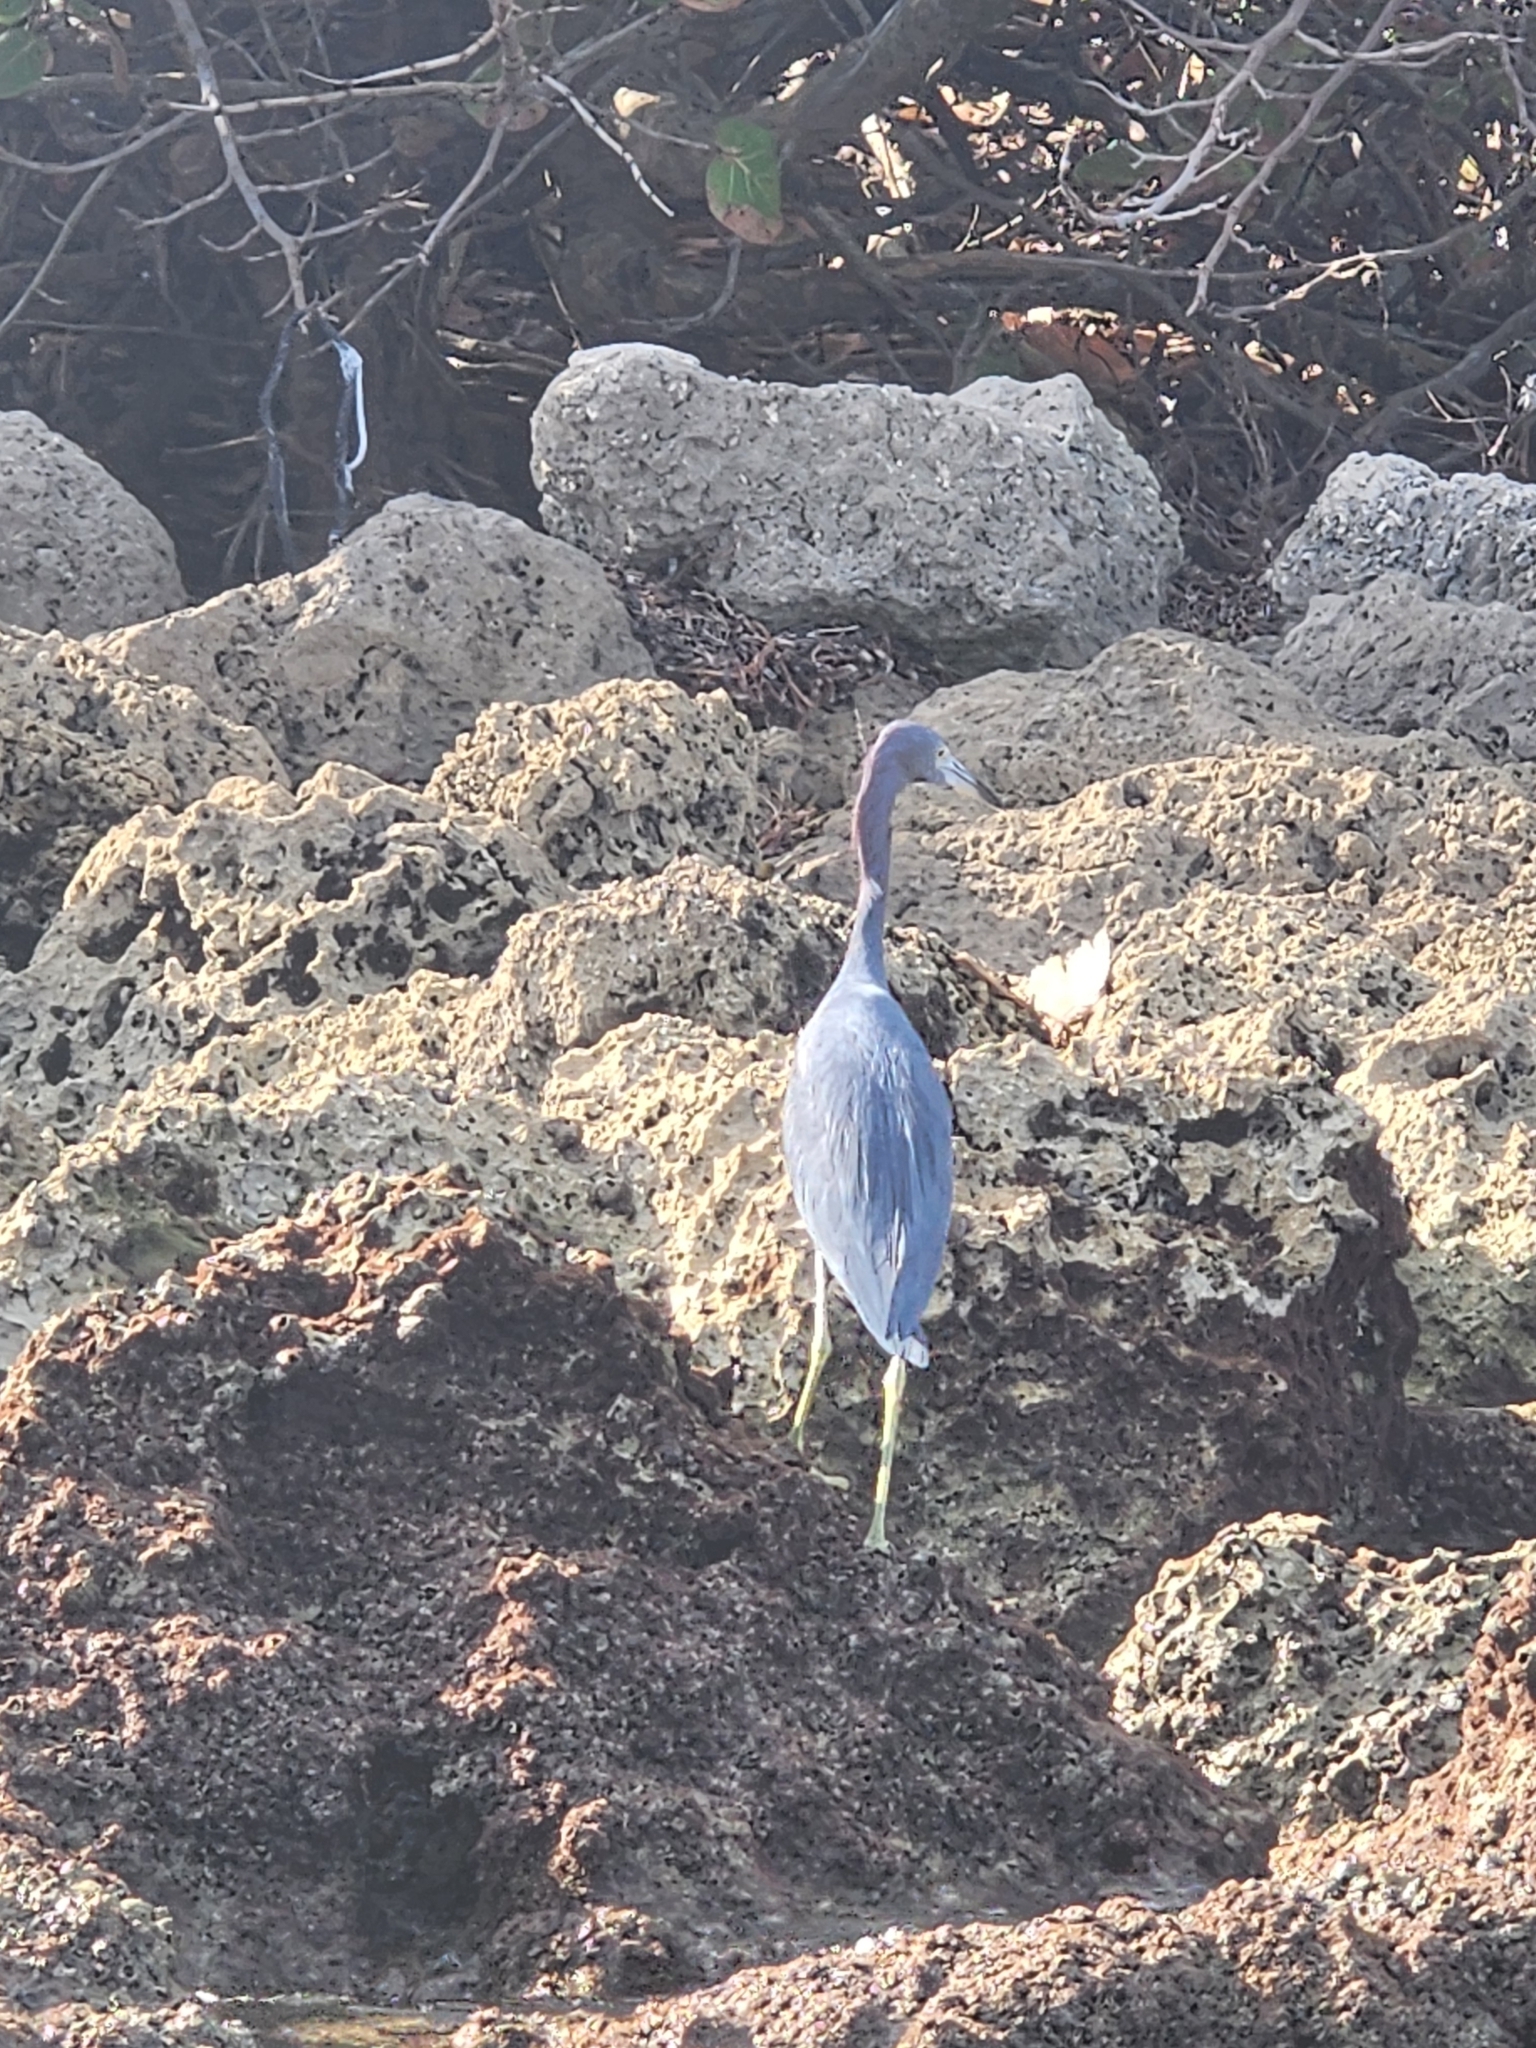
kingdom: Animalia
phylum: Chordata
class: Aves
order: Pelecaniformes
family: Ardeidae
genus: Egretta
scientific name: Egretta caerulea
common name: Little blue heron
